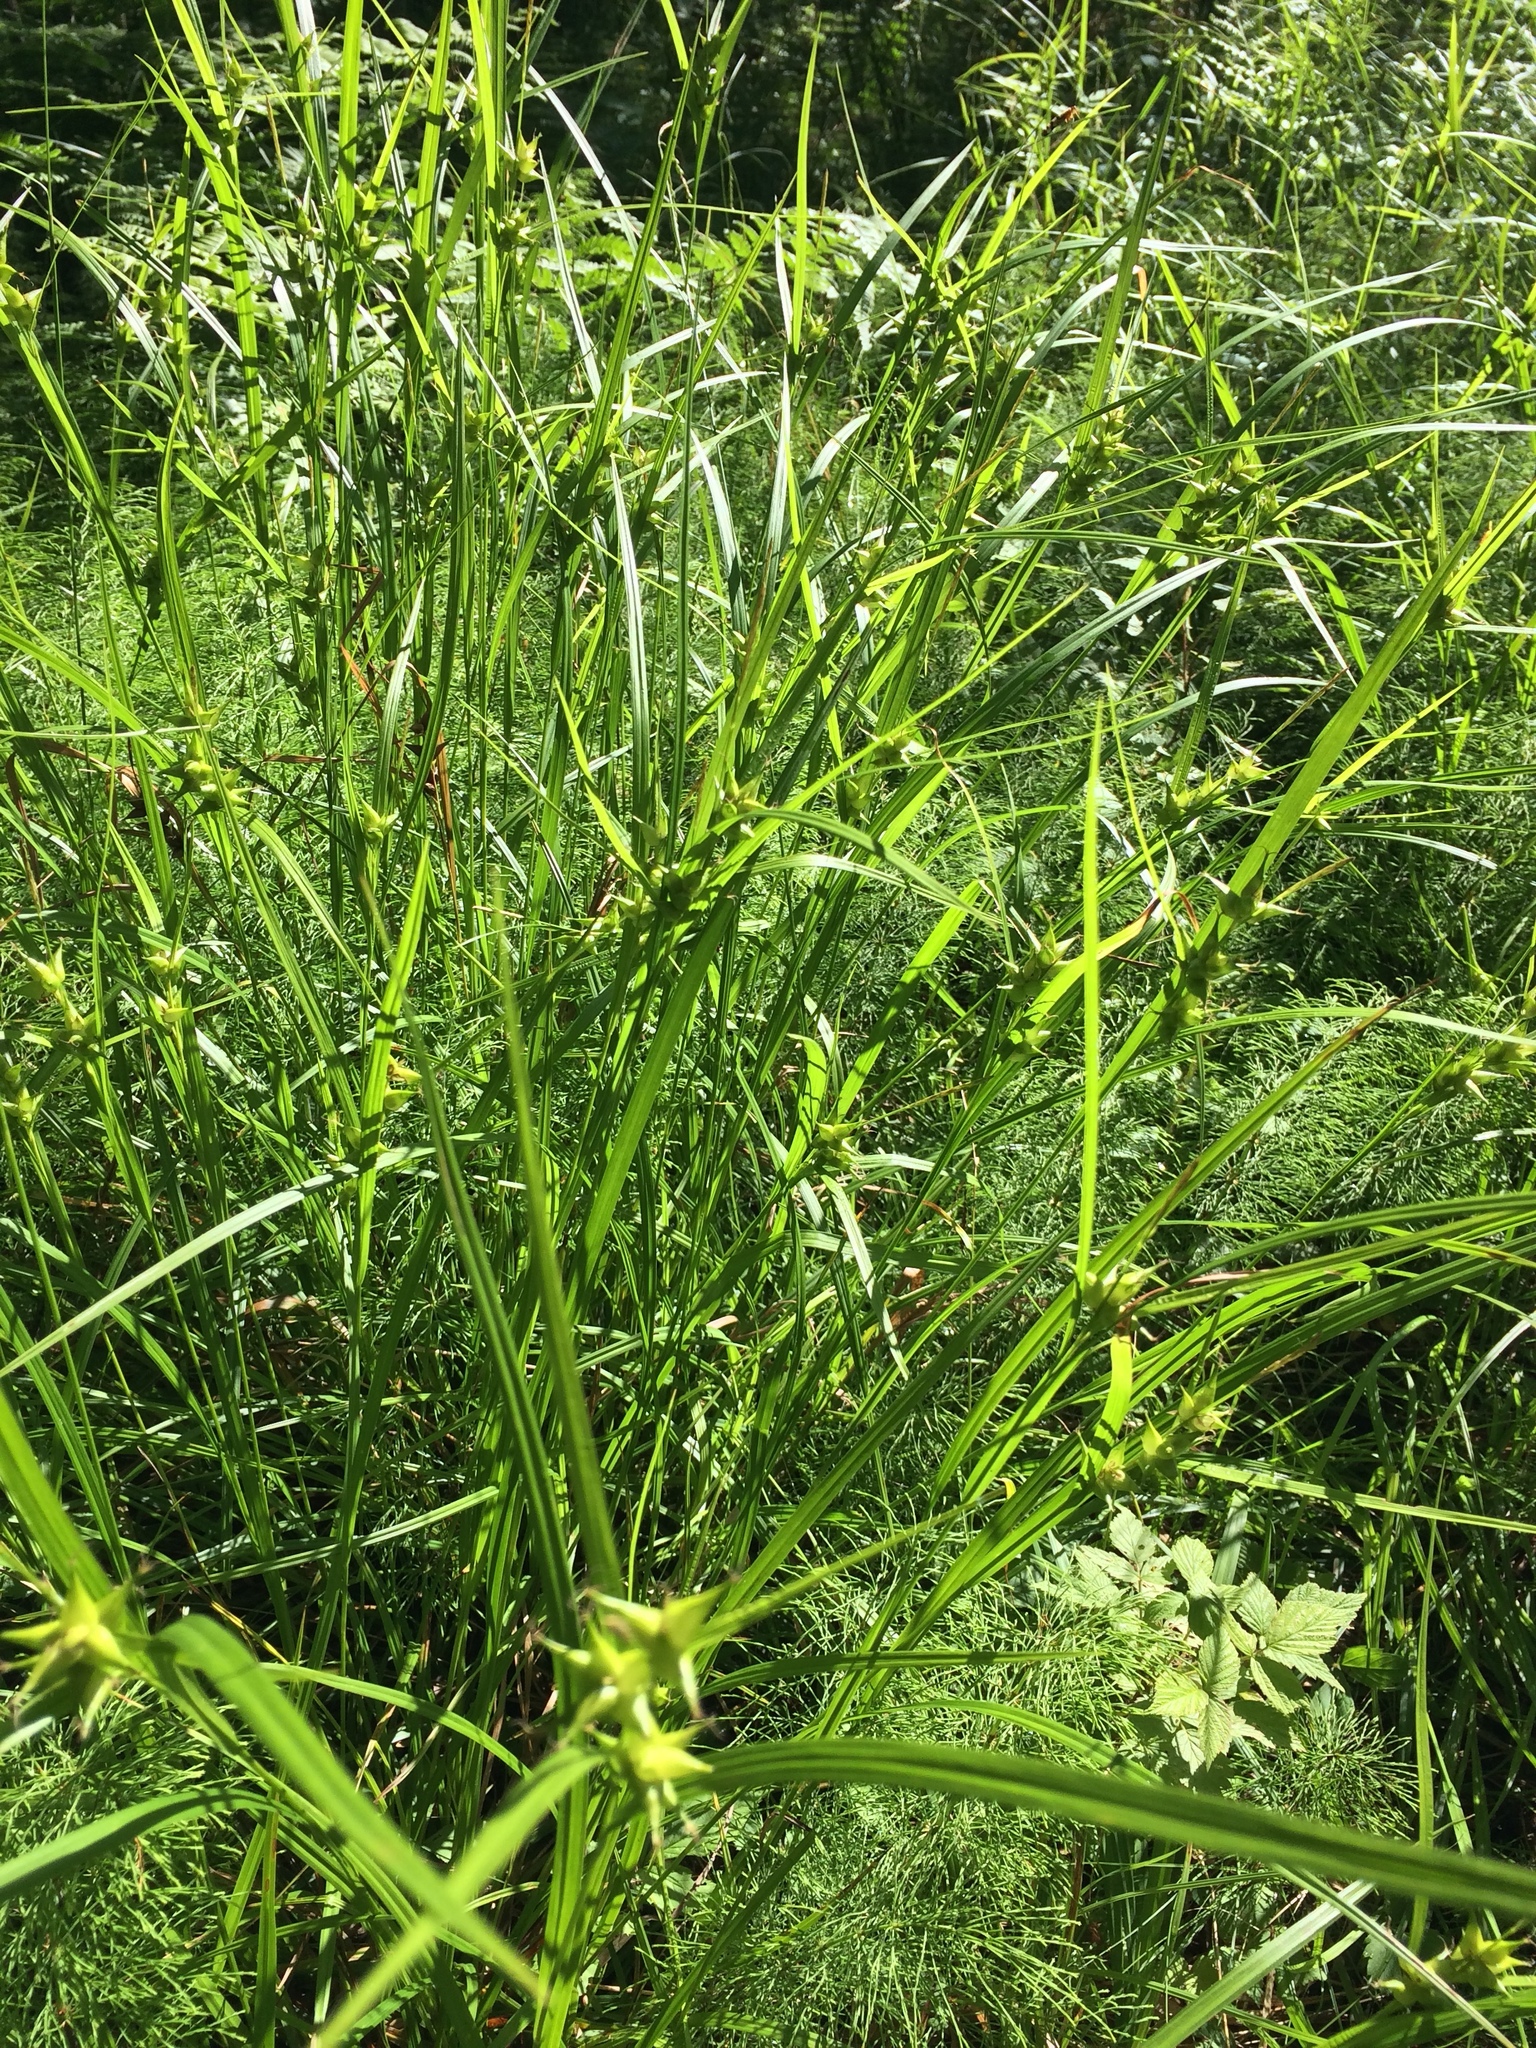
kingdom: Plantae
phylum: Tracheophyta
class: Liliopsida
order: Poales
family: Cyperaceae
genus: Carex
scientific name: Carex intumescens
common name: Greater bladder sedge
